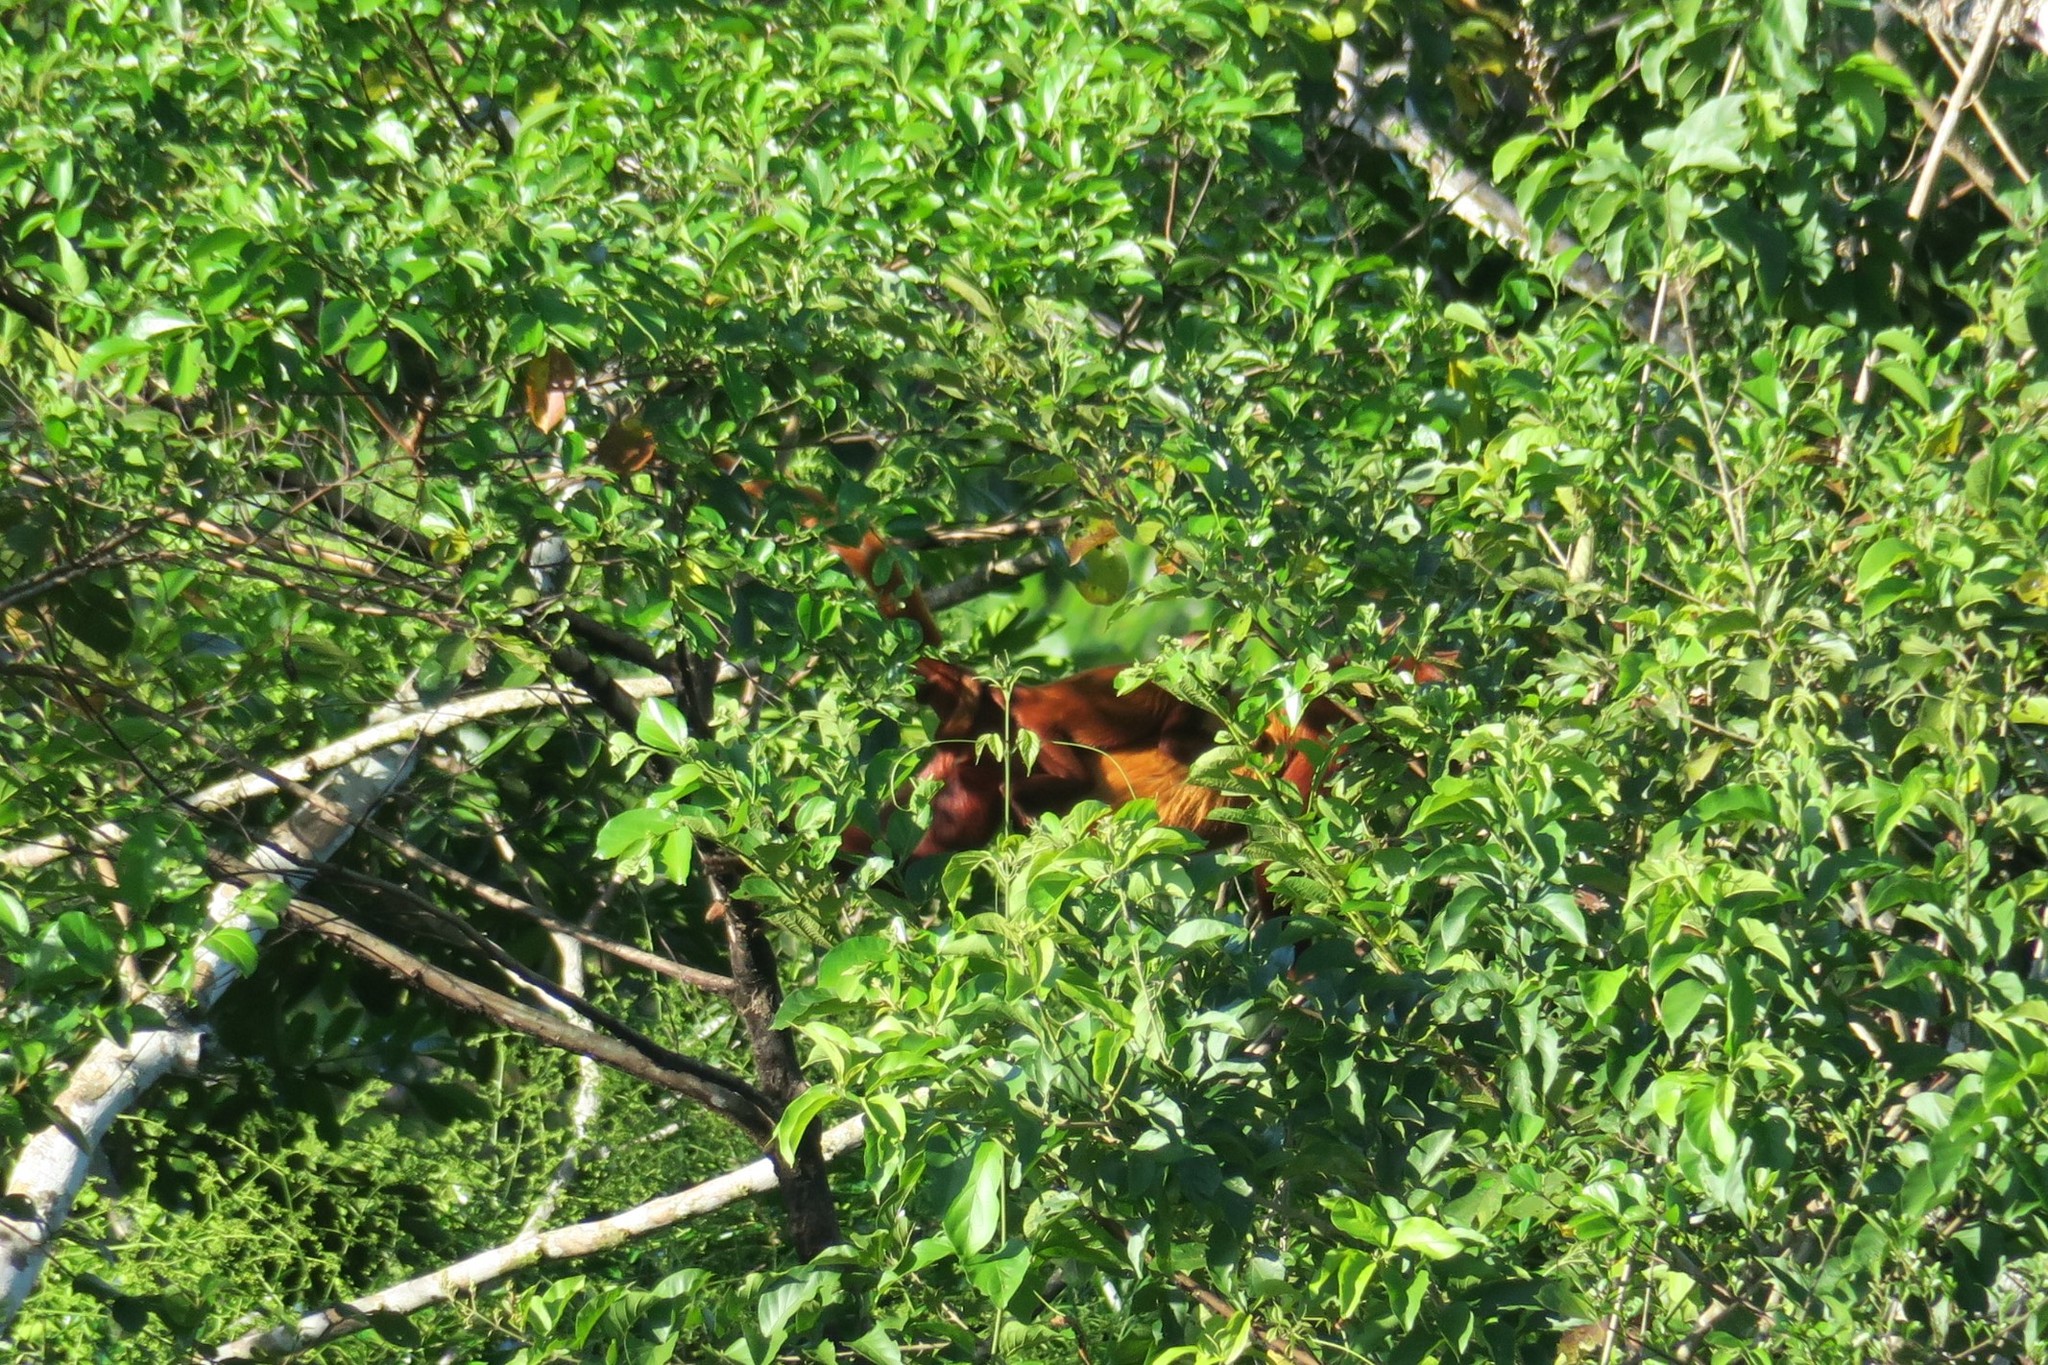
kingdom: Animalia
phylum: Chordata
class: Mammalia
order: Primates
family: Atelidae
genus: Alouatta
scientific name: Alouatta seniculus
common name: Venezuelan red howler
